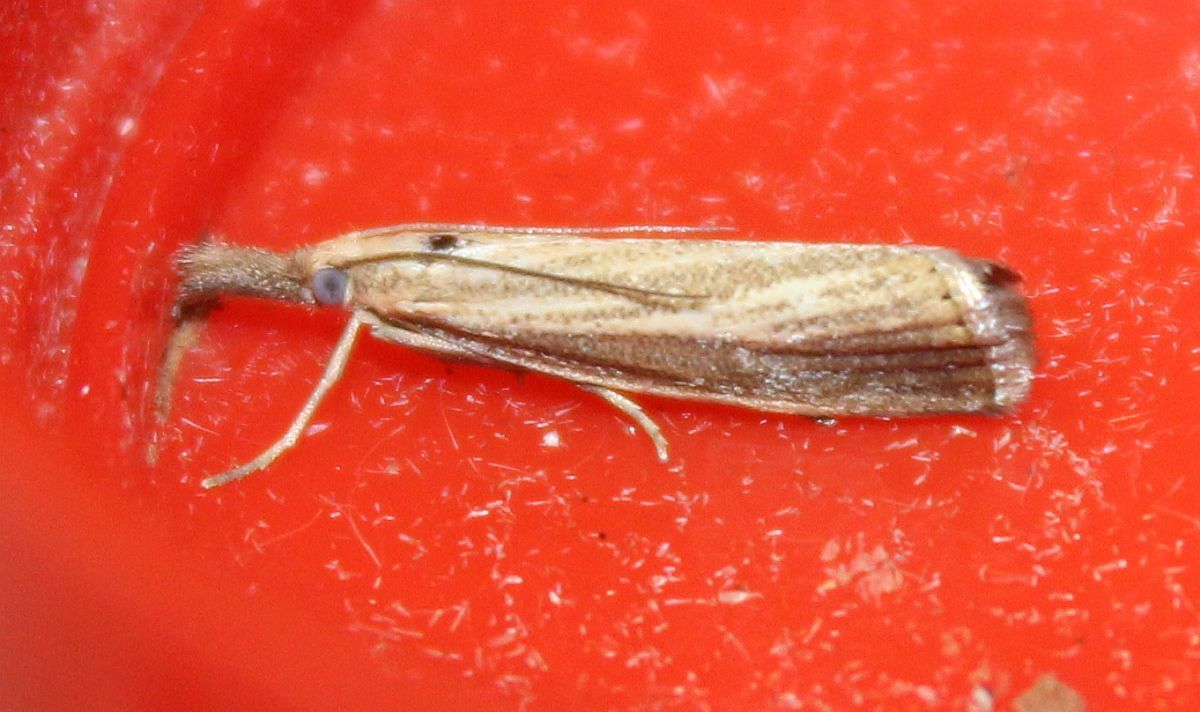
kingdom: Animalia
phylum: Arthropoda
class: Insecta
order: Lepidoptera
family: Crambidae
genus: Agriphila
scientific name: Agriphila straminella
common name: Straw grass-veneer
